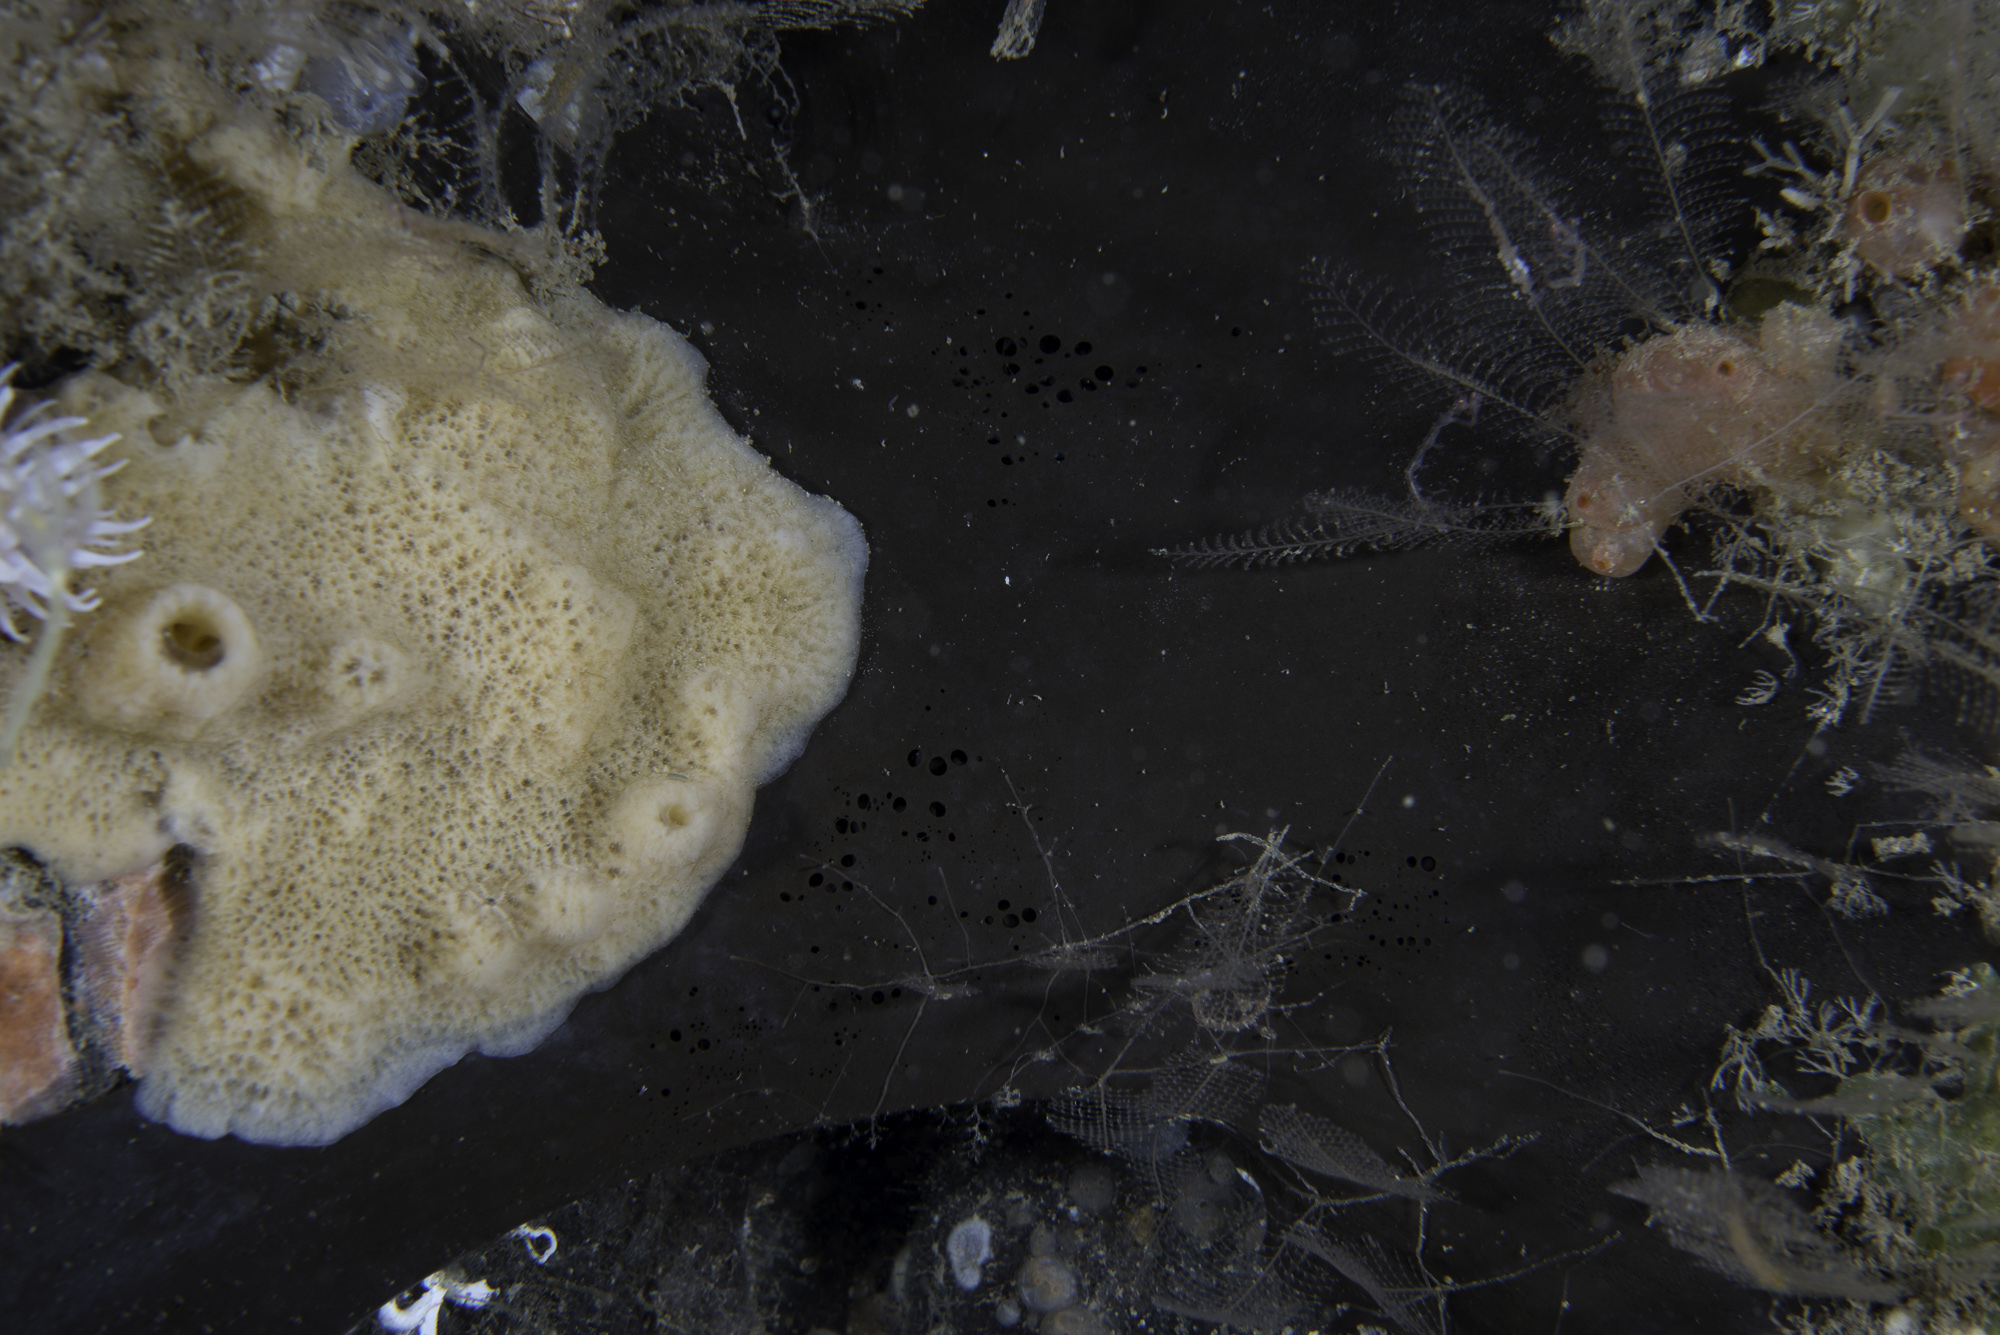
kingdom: Animalia
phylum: Porifera
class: Demospongiae
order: Tetractinellida
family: Ancorinidae
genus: Dercitus
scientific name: Dercitus bucklandi
